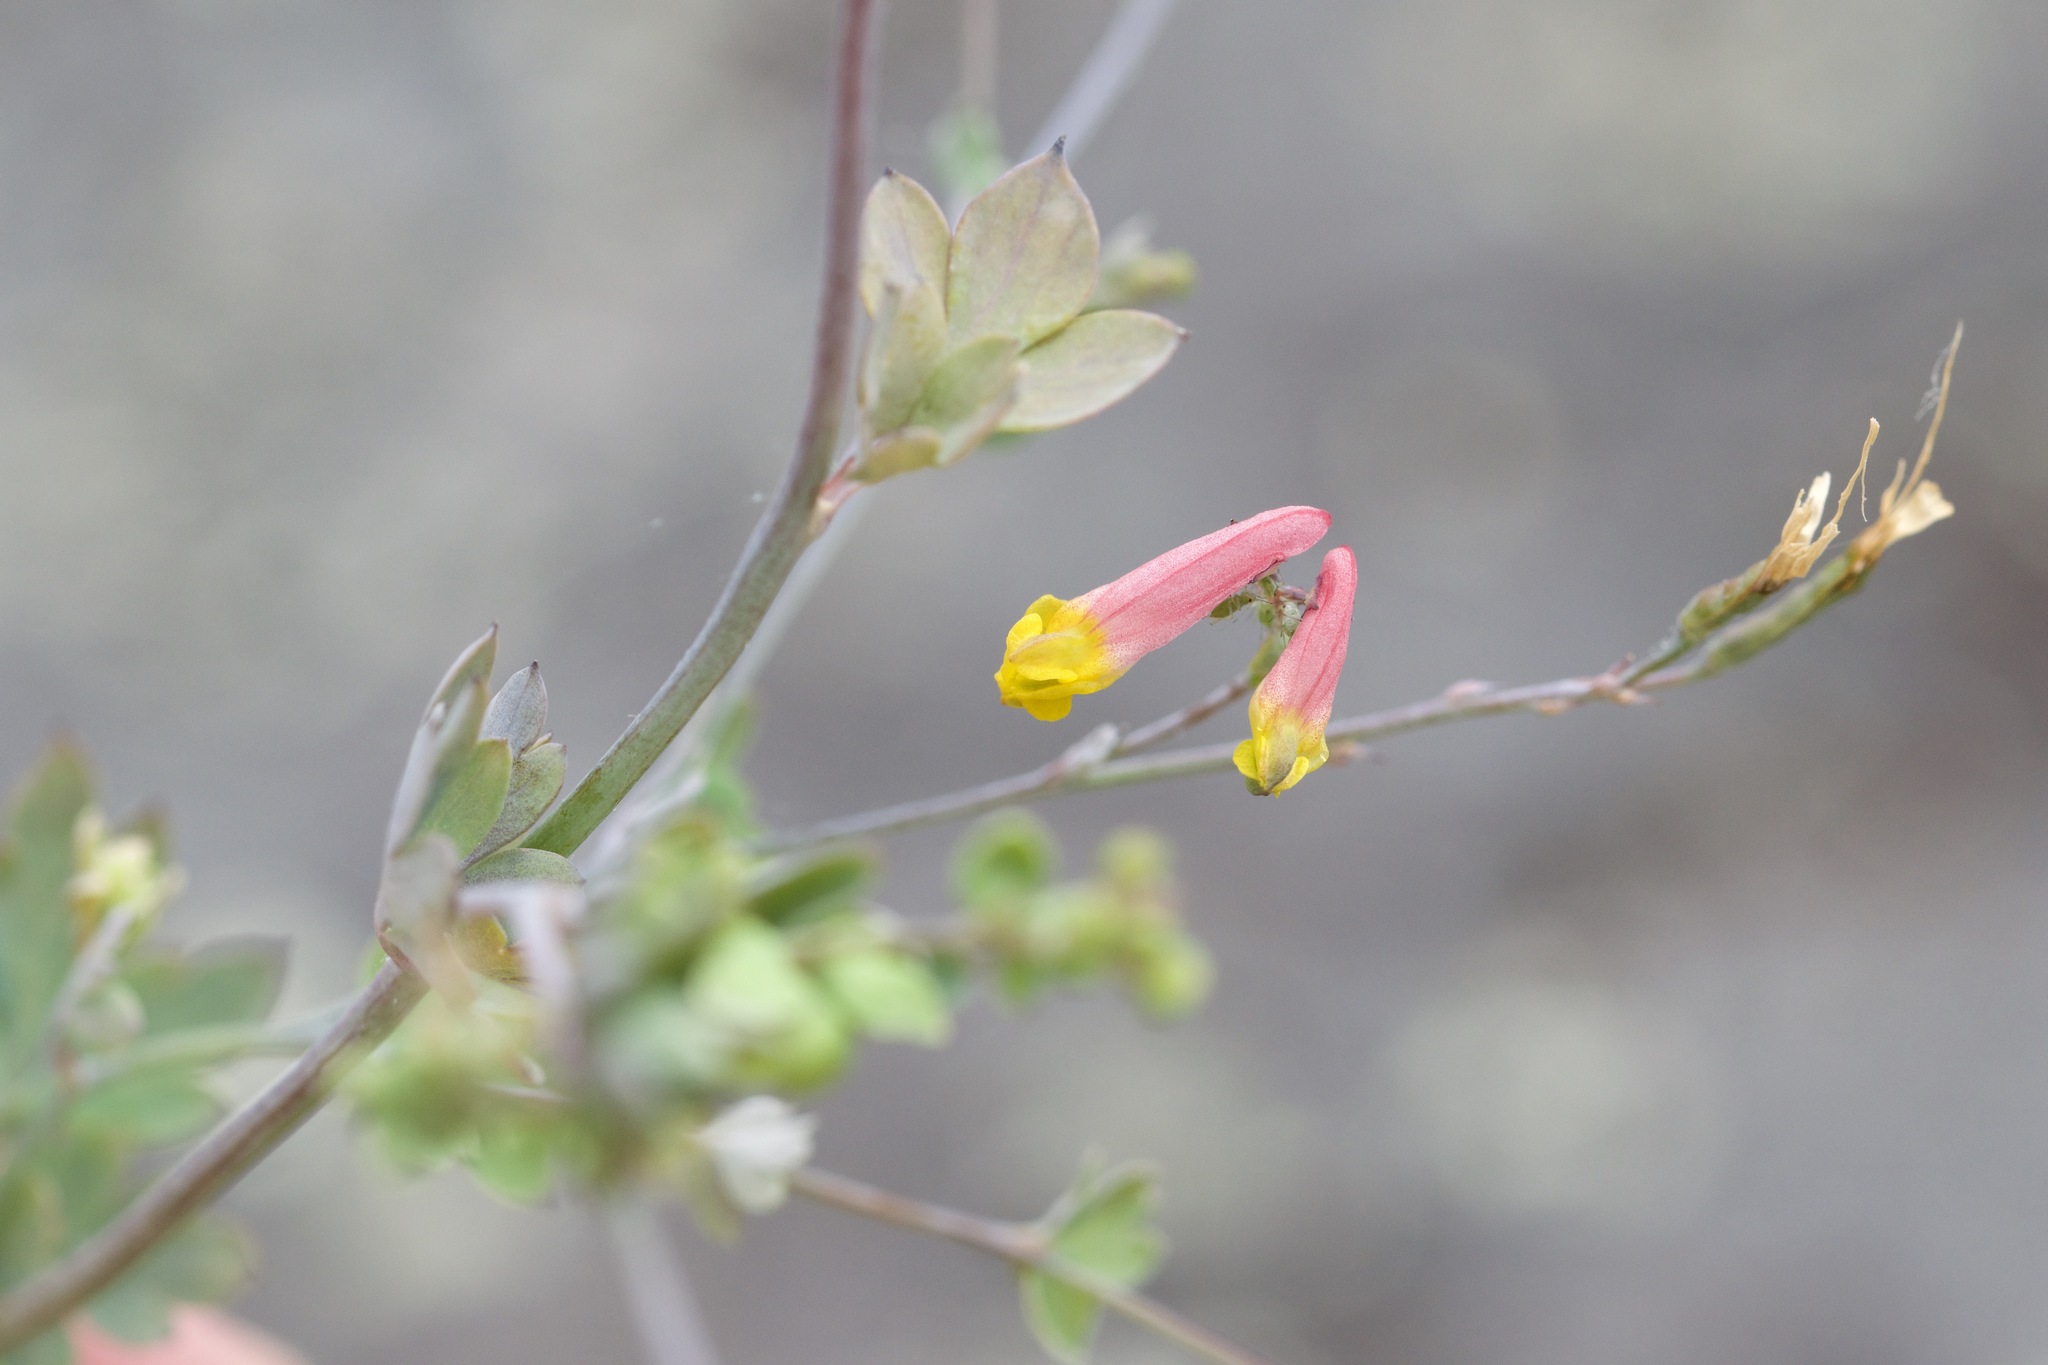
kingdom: Plantae
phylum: Tracheophyta
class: Magnoliopsida
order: Ranunculales
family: Papaveraceae
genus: Capnoides
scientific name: Capnoides sempervirens
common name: Rock harlequin
